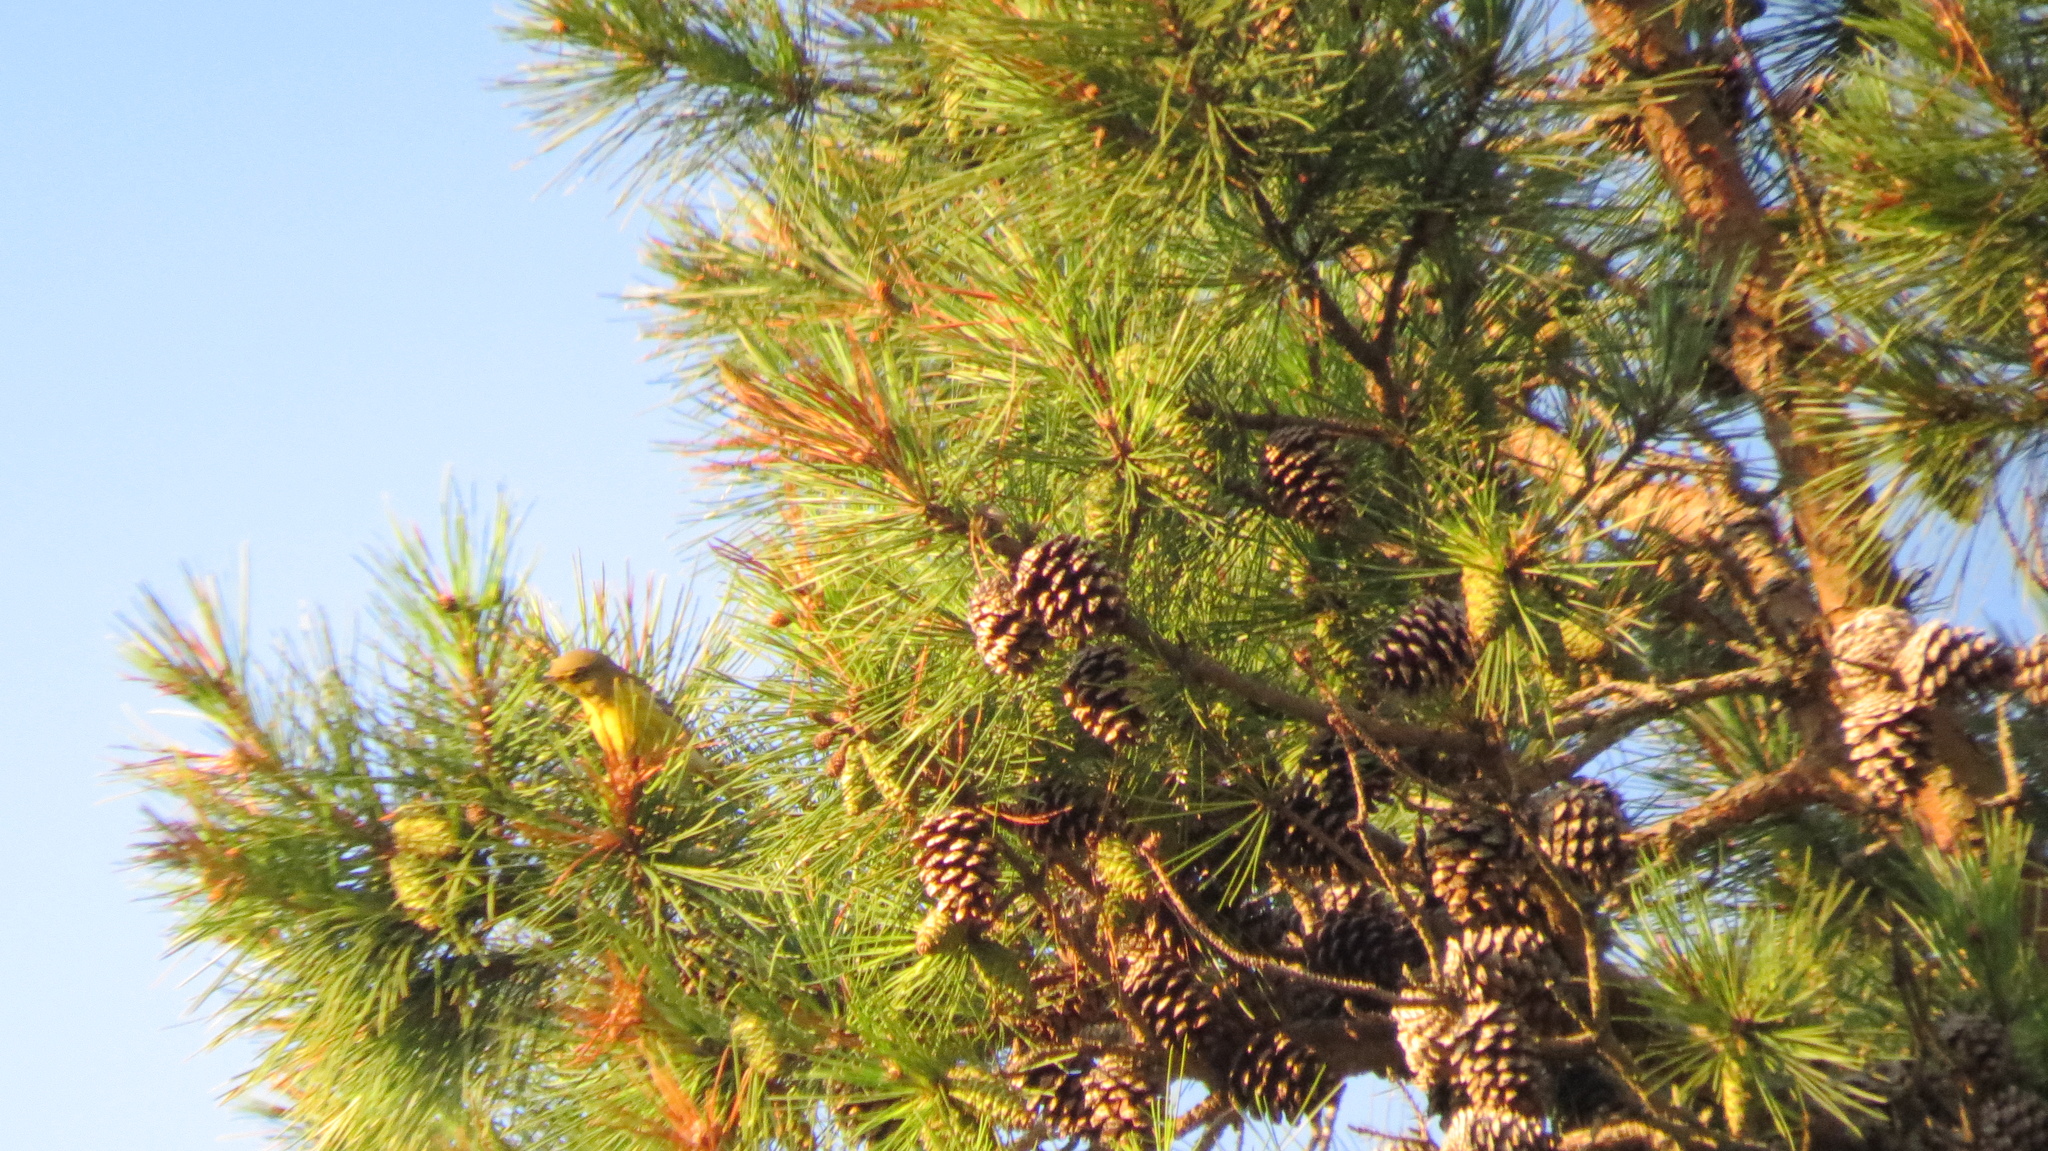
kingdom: Animalia
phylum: Chordata
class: Aves
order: Passeriformes
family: Parulidae
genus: Setophaga
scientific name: Setophaga pinus
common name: Pine warbler
